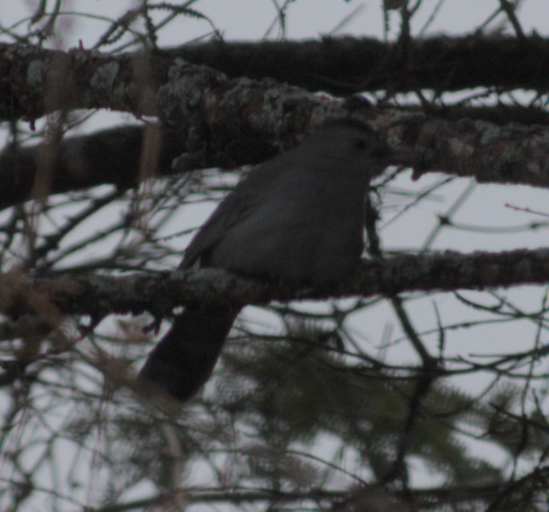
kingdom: Animalia
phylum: Chordata
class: Aves
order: Passeriformes
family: Mimidae
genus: Dumetella
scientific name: Dumetella carolinensis
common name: Gray catbird
